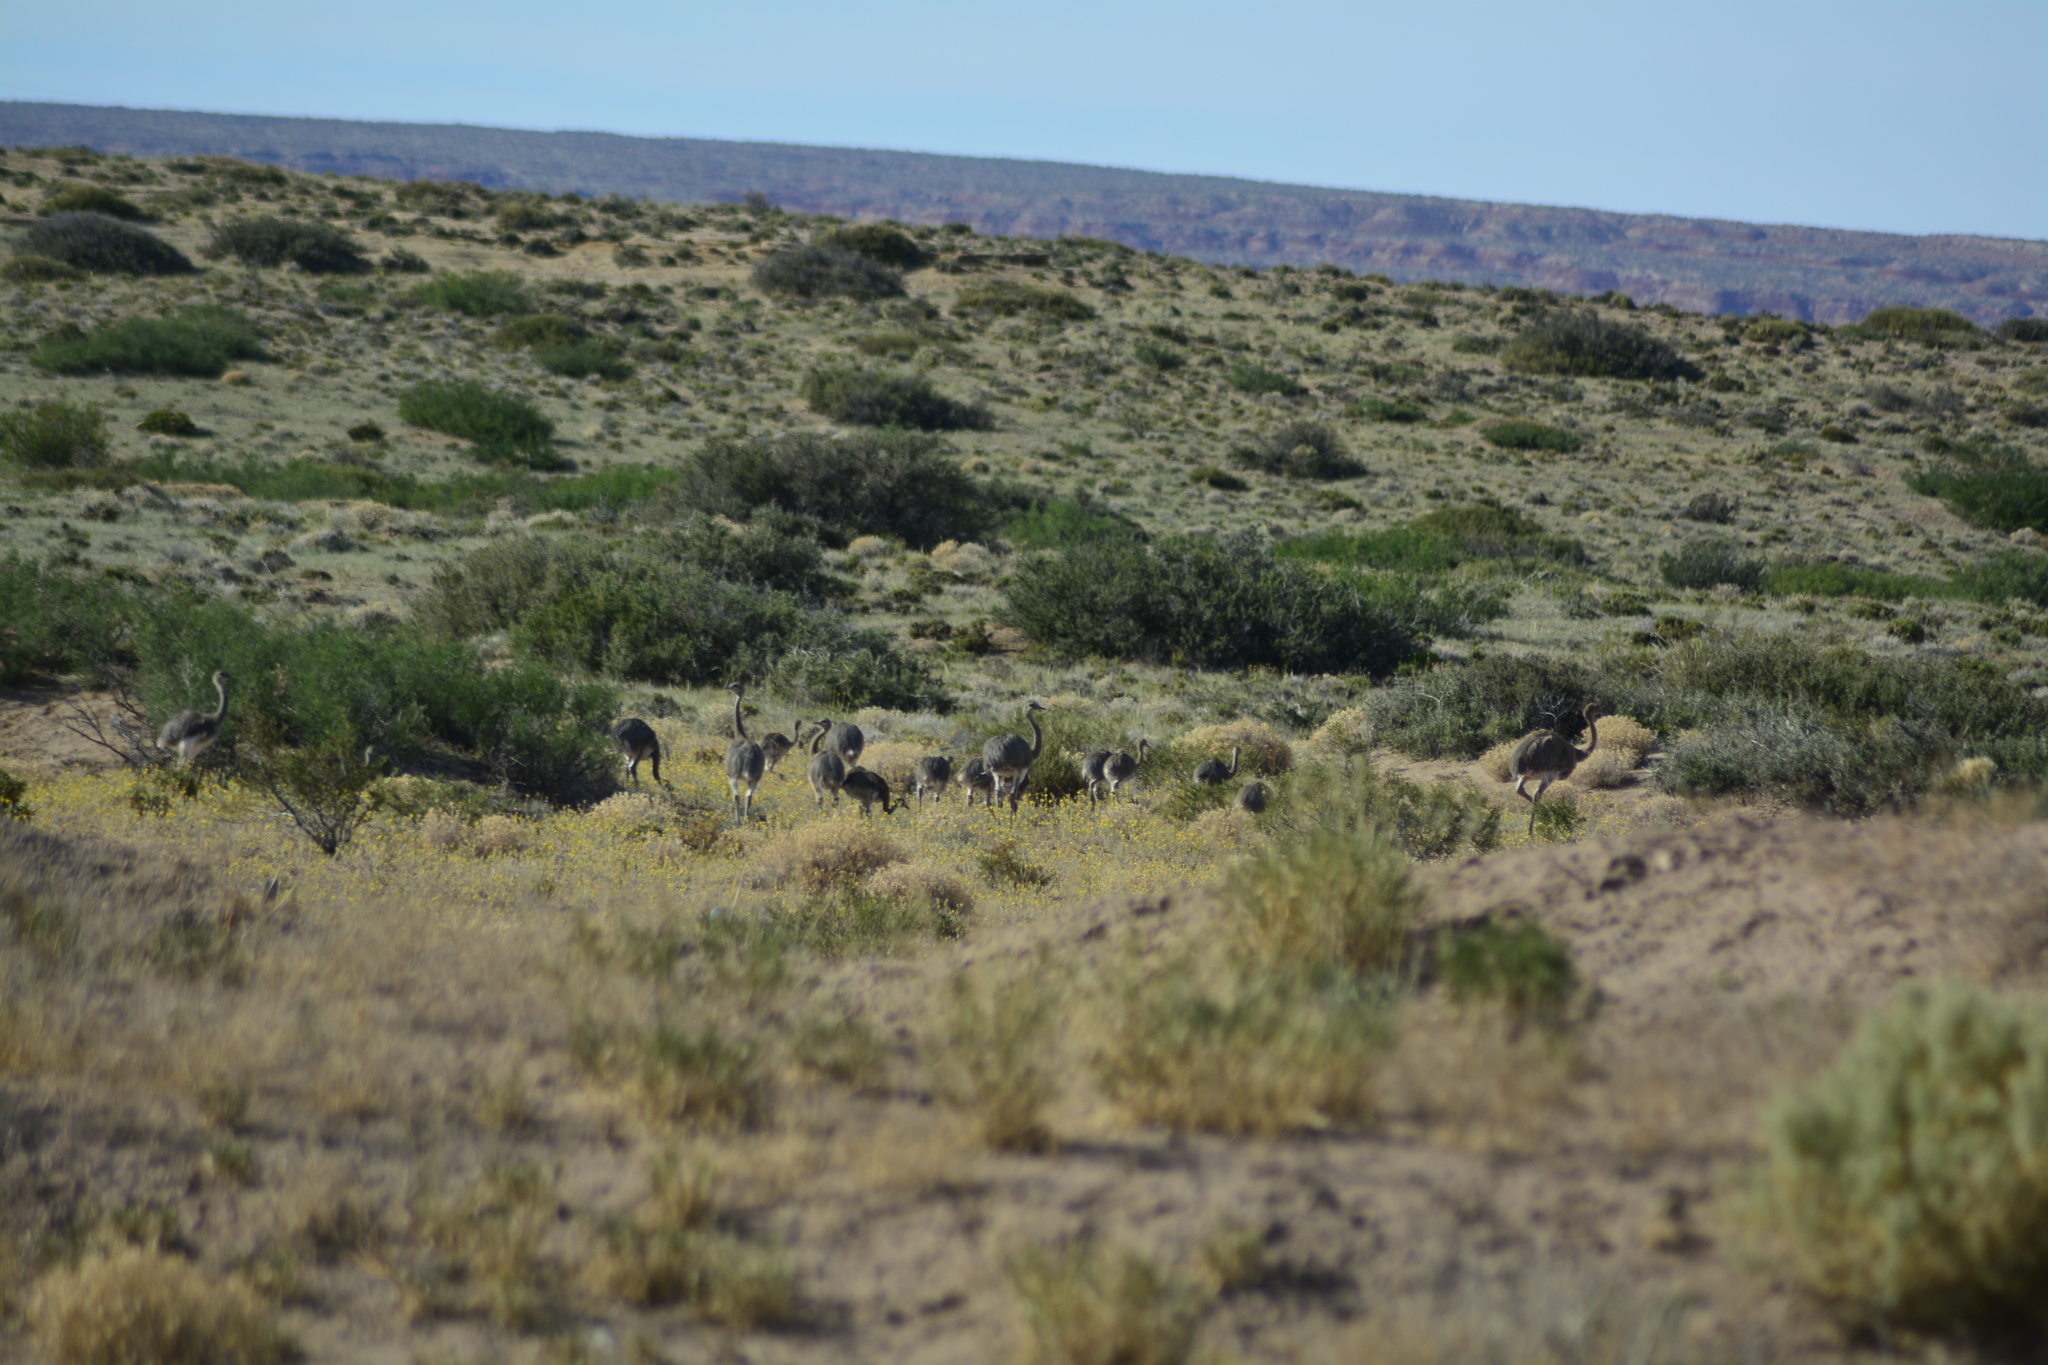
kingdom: Animalia
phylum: Chordata
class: Aves
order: Rheiformes
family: Rheidae
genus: Rhea
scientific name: Rhea pennata
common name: Lesser rhea
